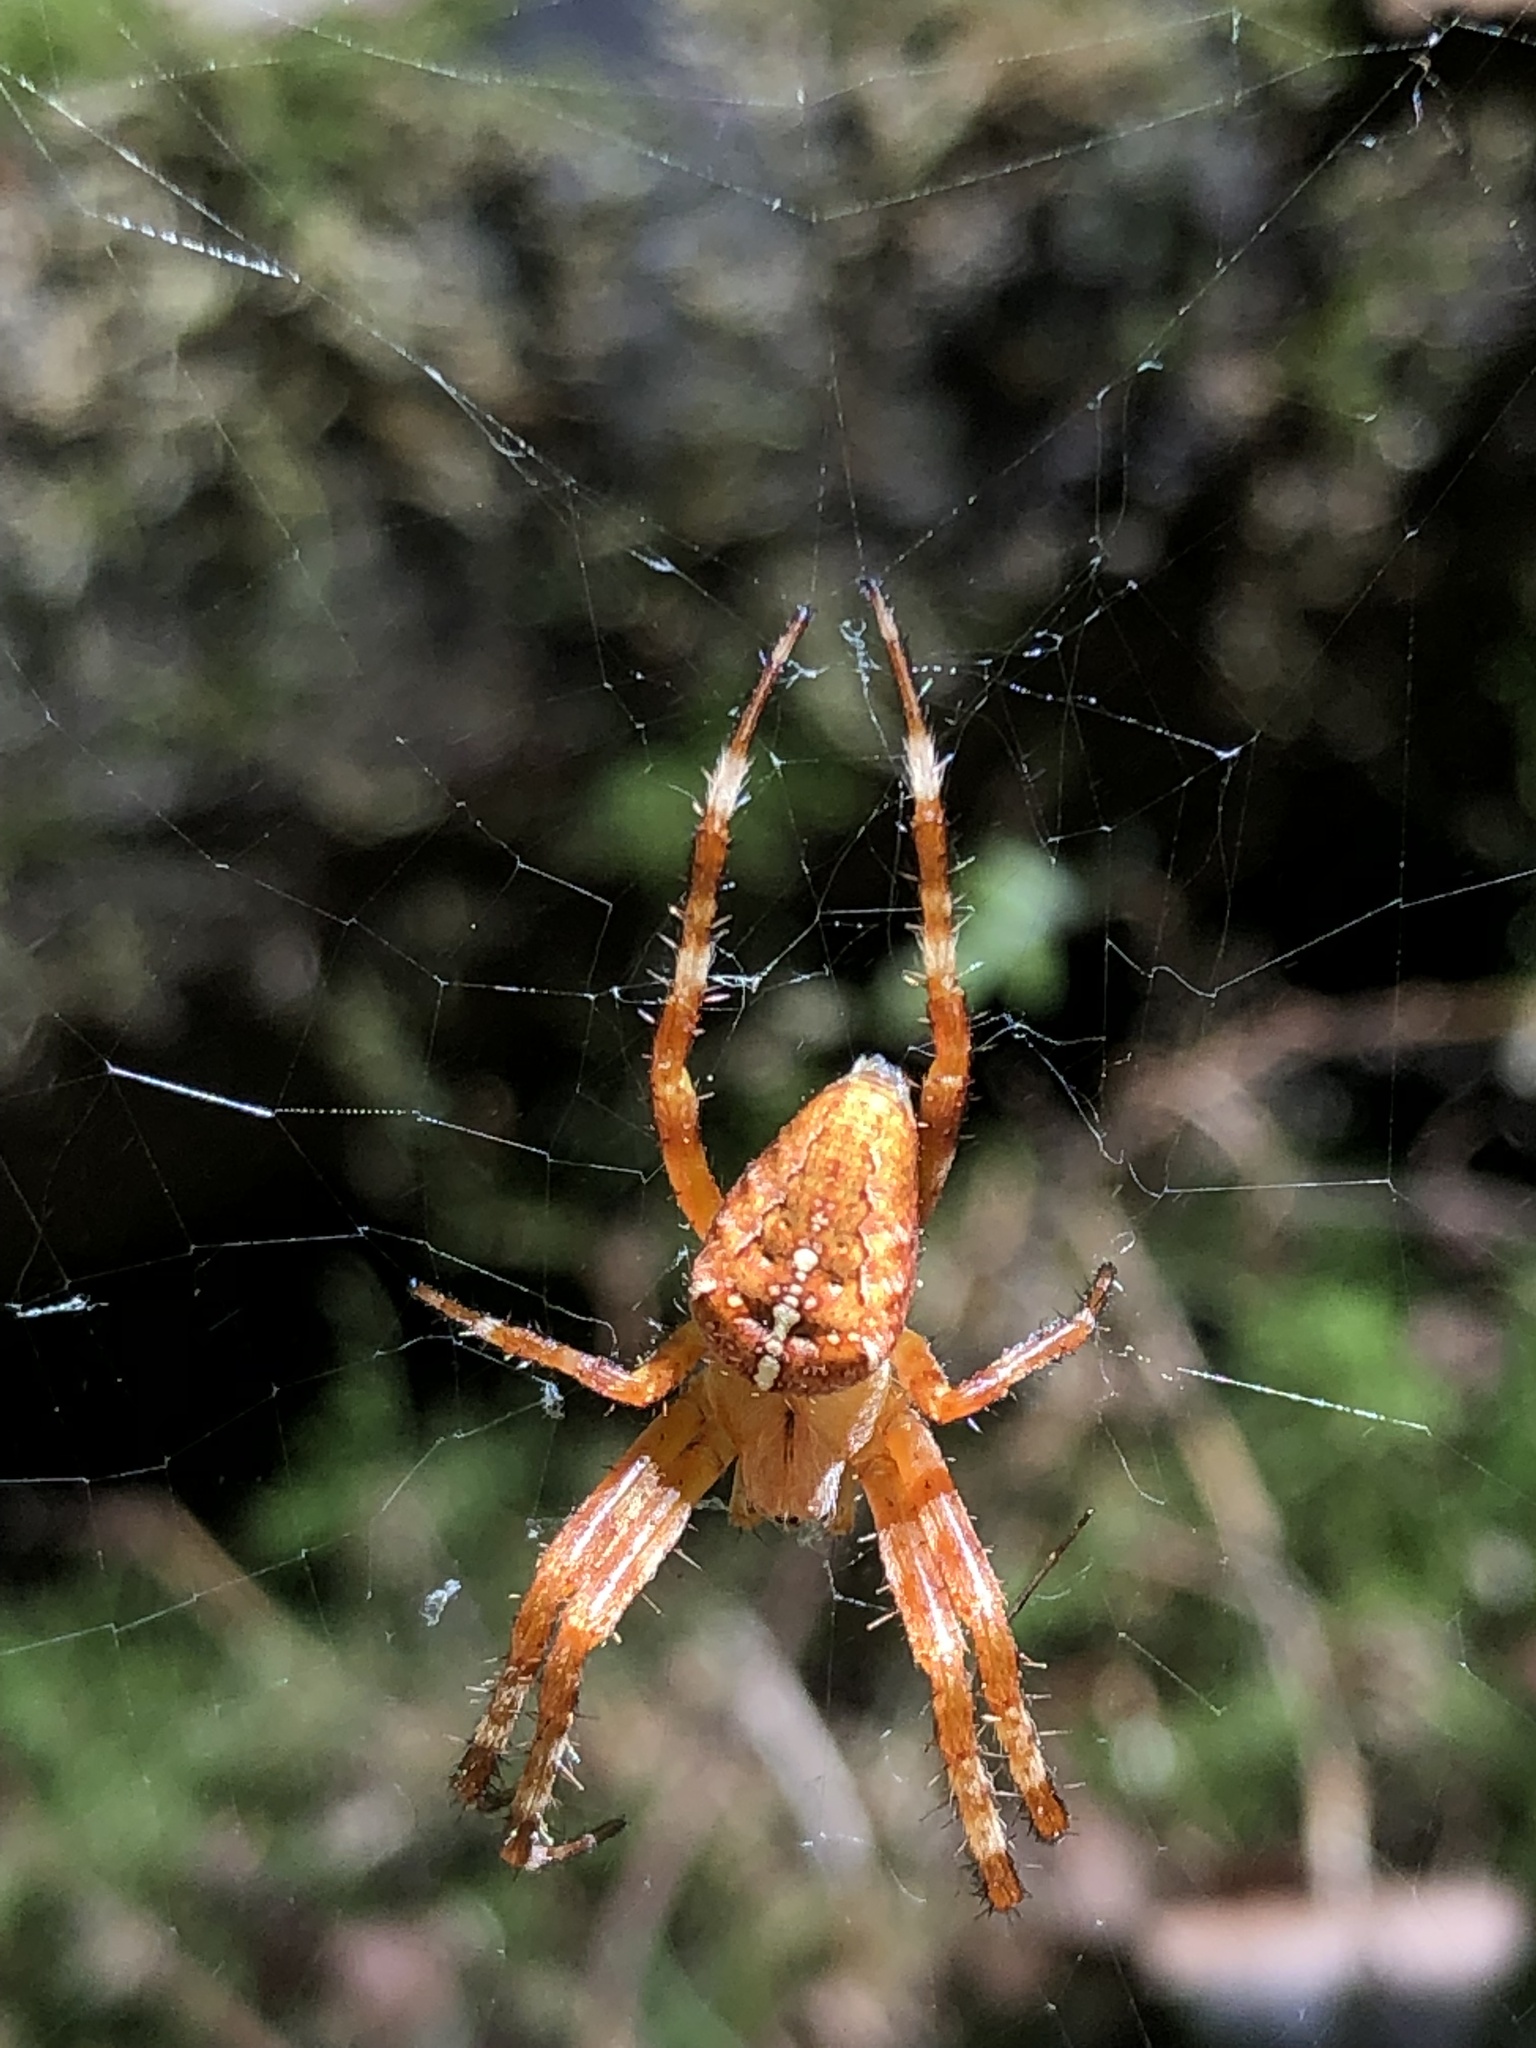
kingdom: Animalia
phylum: Arthropoda
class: Arachnida
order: Araneae
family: Araneidae
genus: Araneus
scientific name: Araneus diadematus
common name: Cross orbweaver
